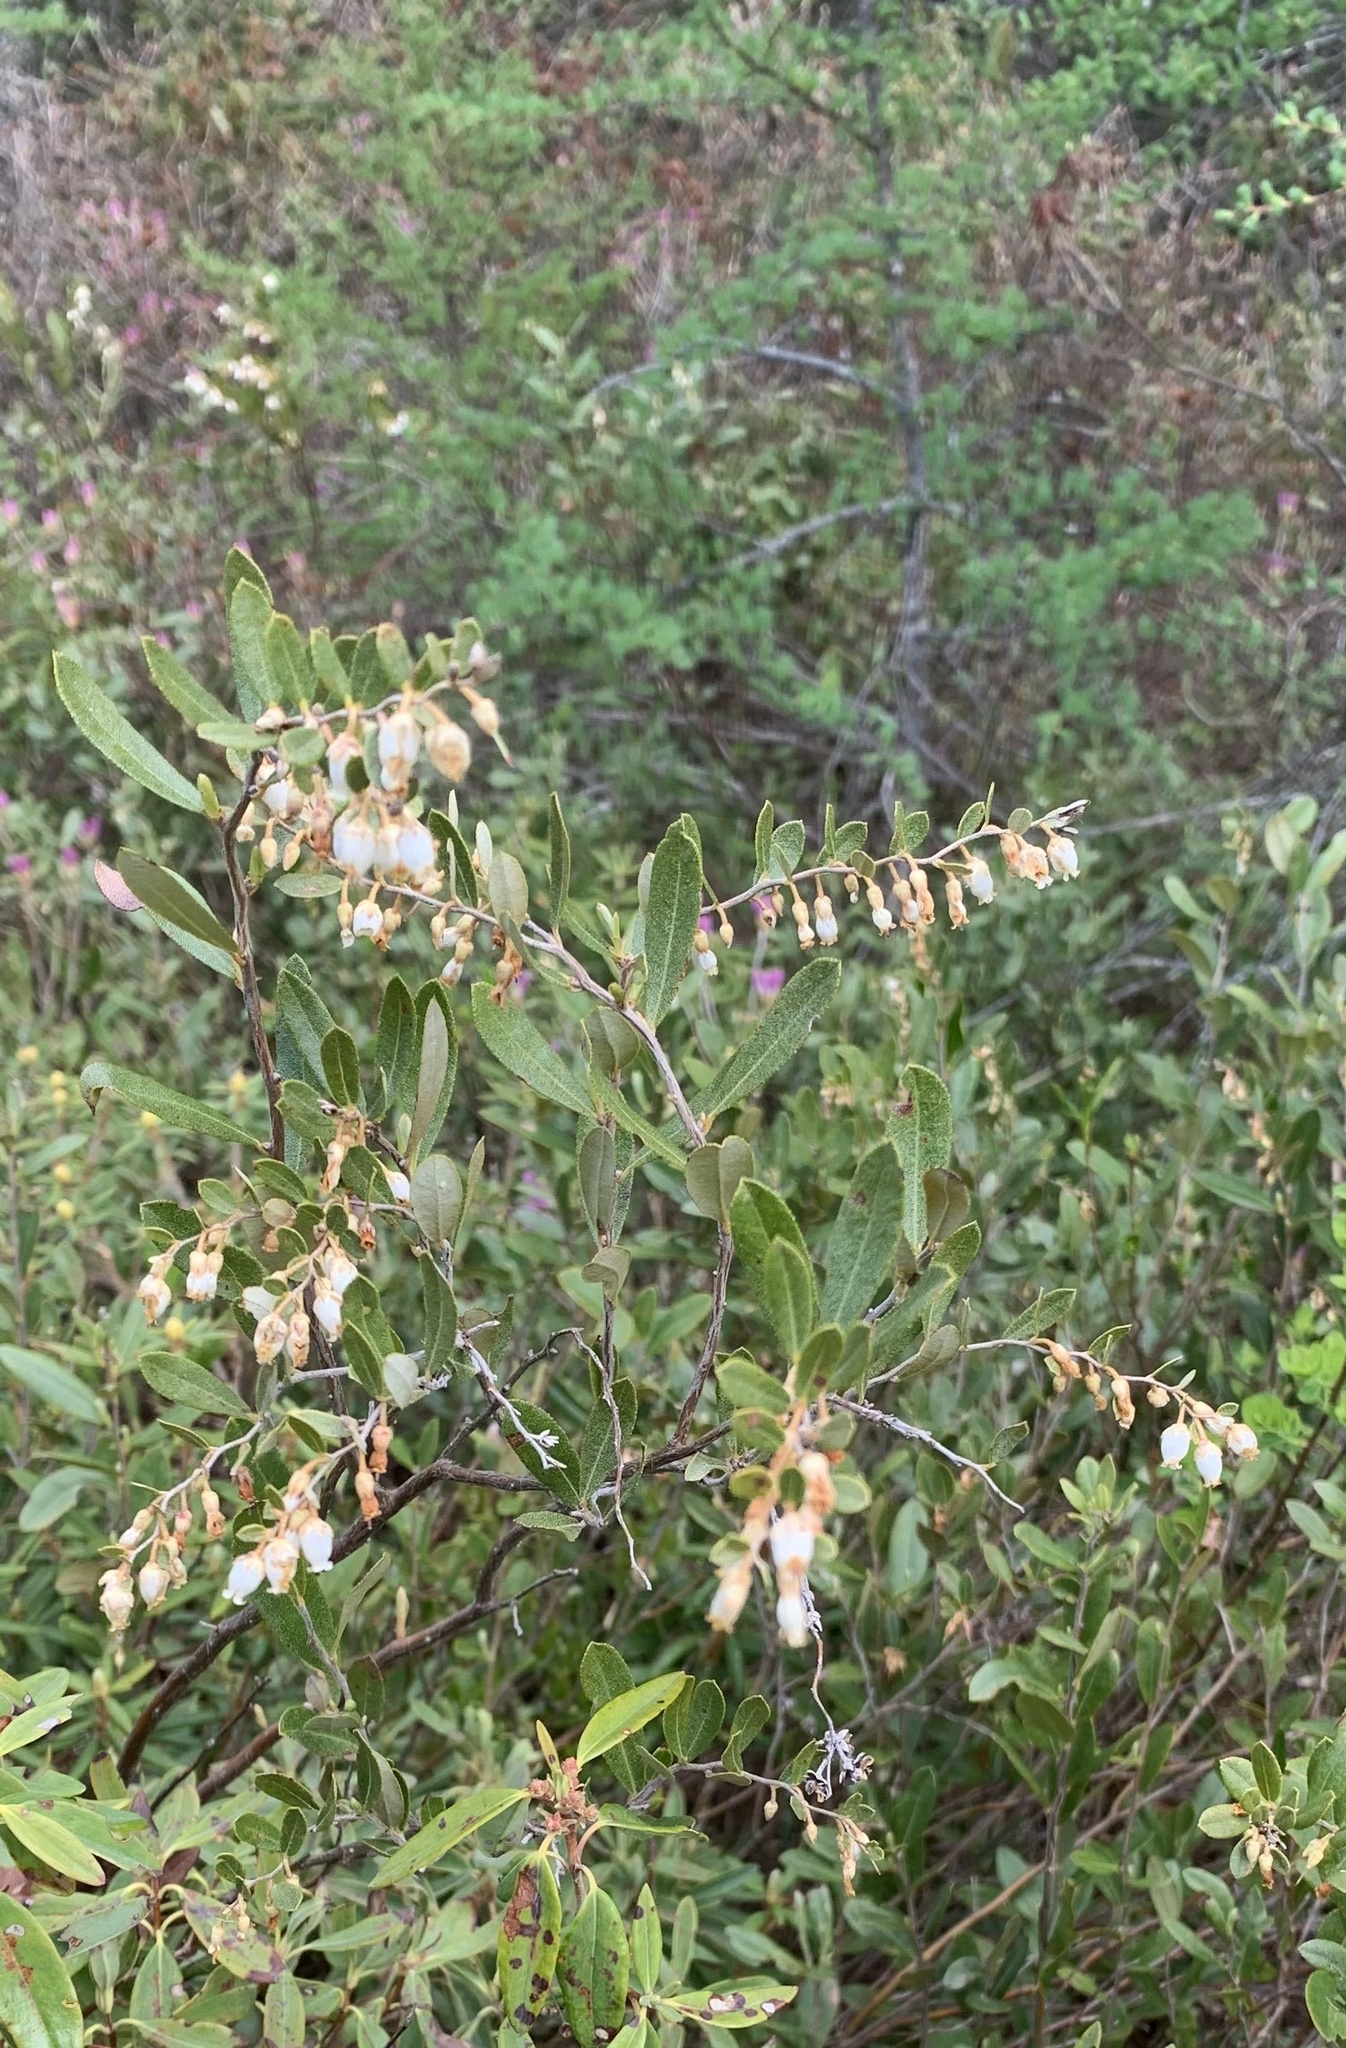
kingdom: Plantae
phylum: Tracheophyta
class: Magnoliopsida
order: Ericales
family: Ericaceae
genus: Chamaedaphne
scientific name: Chamaedaphne calyculata
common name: Leatherleaf
